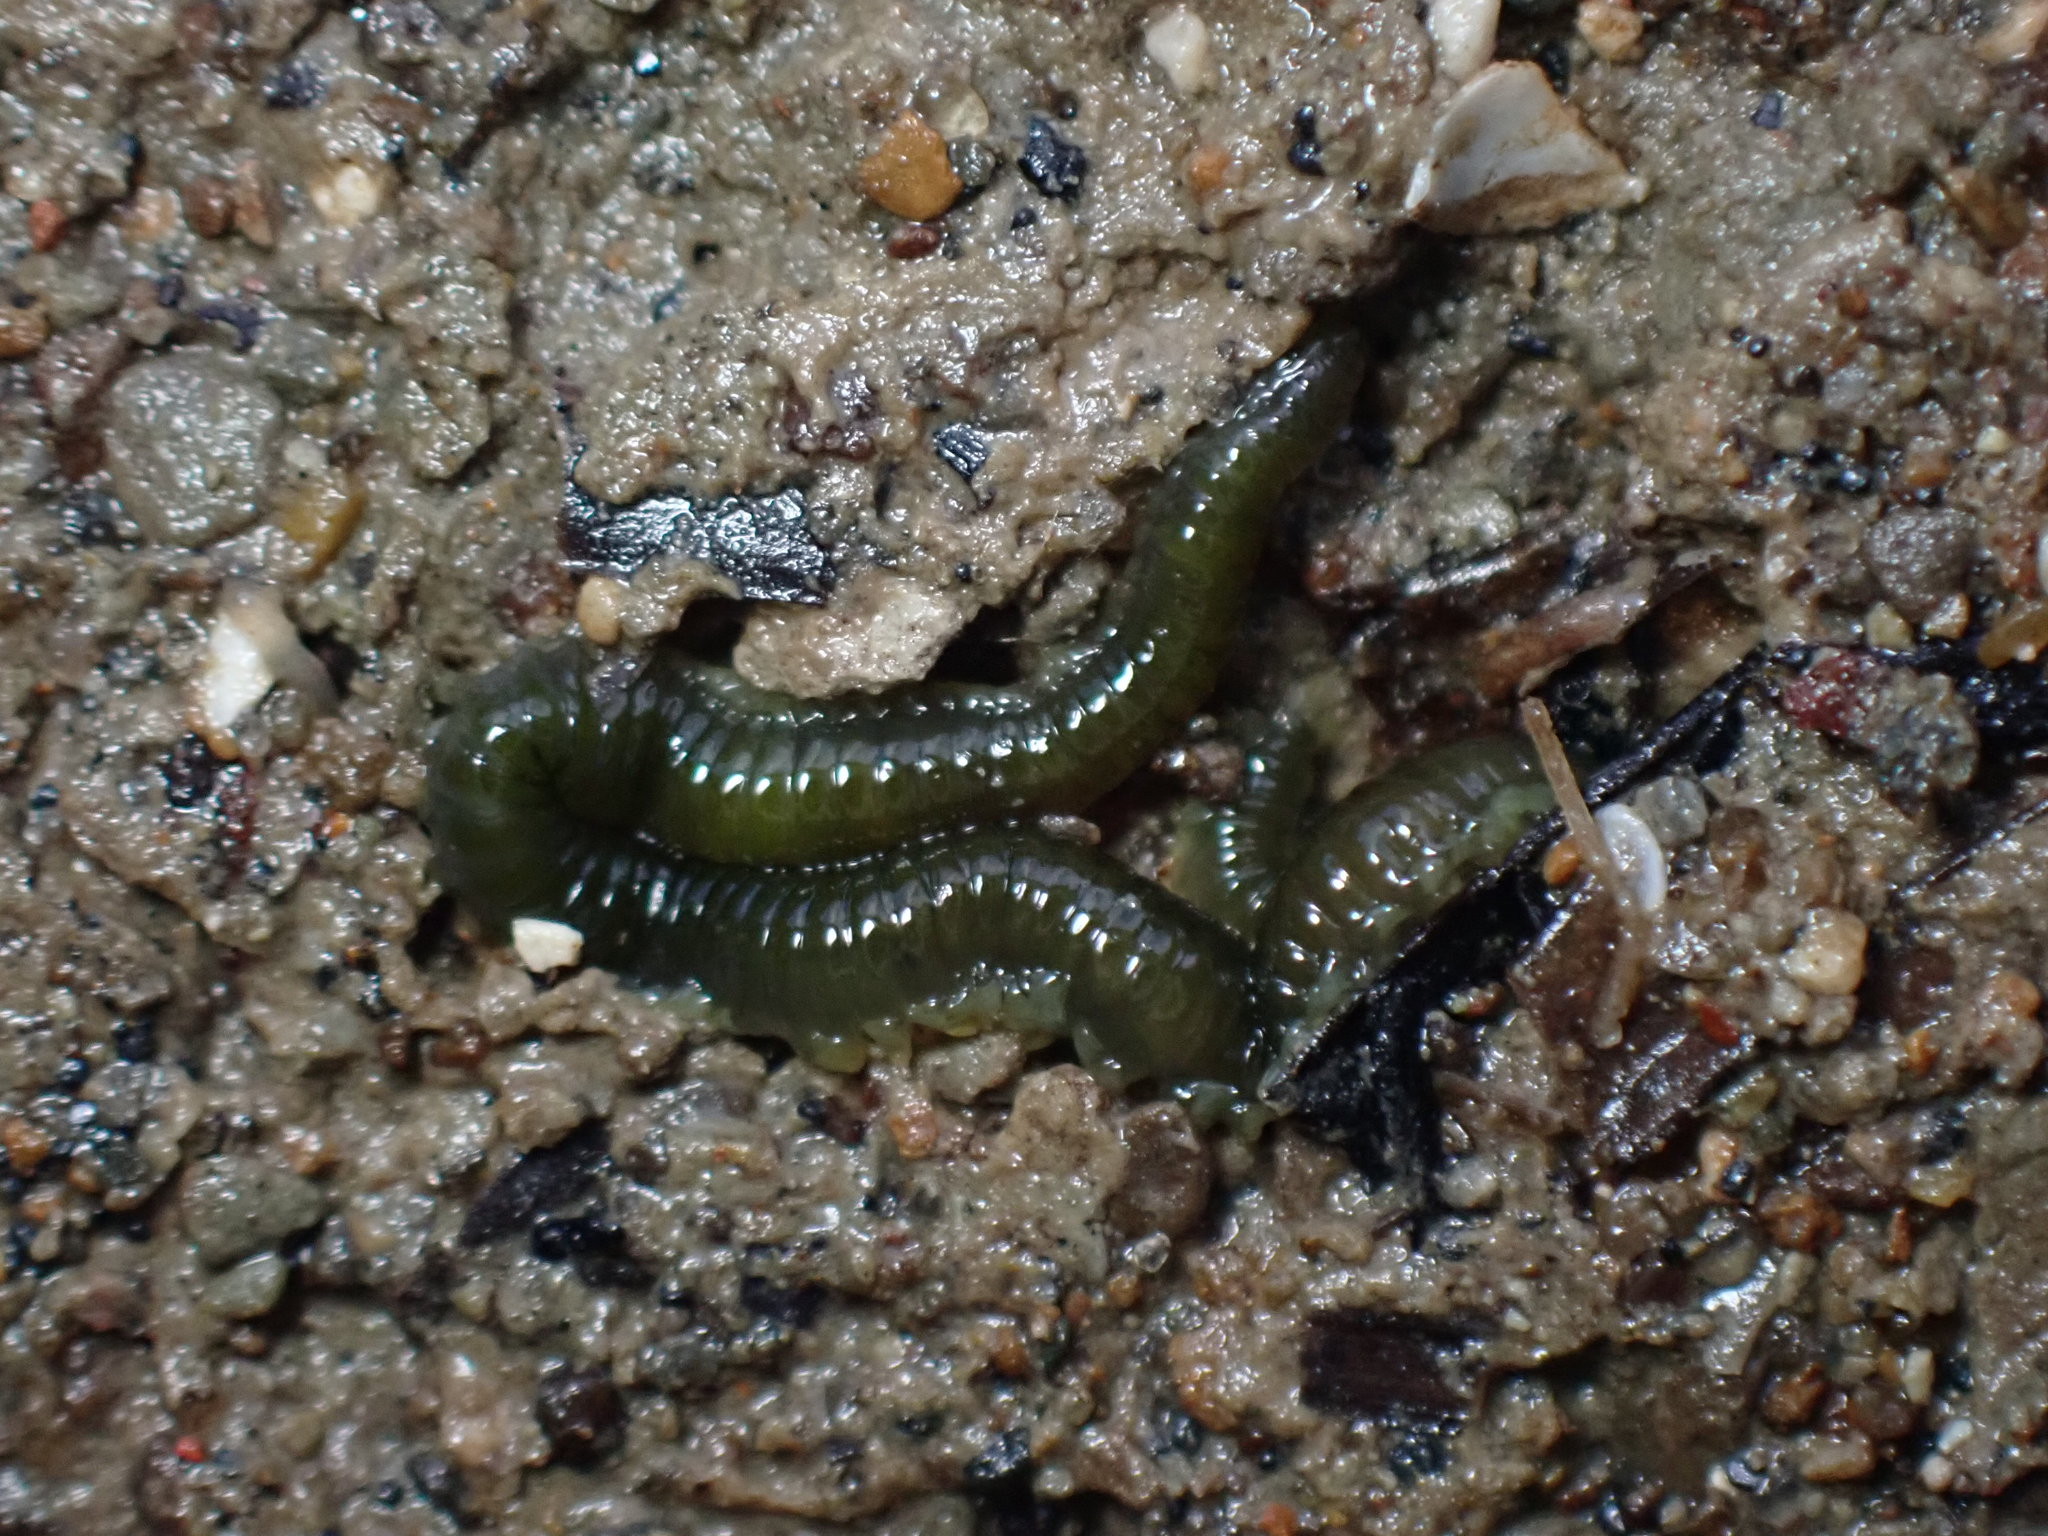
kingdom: Animalia
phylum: Annelida
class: Polychaeta
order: Phyllodocida
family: Phyllodocidae
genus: Eulalia
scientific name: Eulalia microphylla
